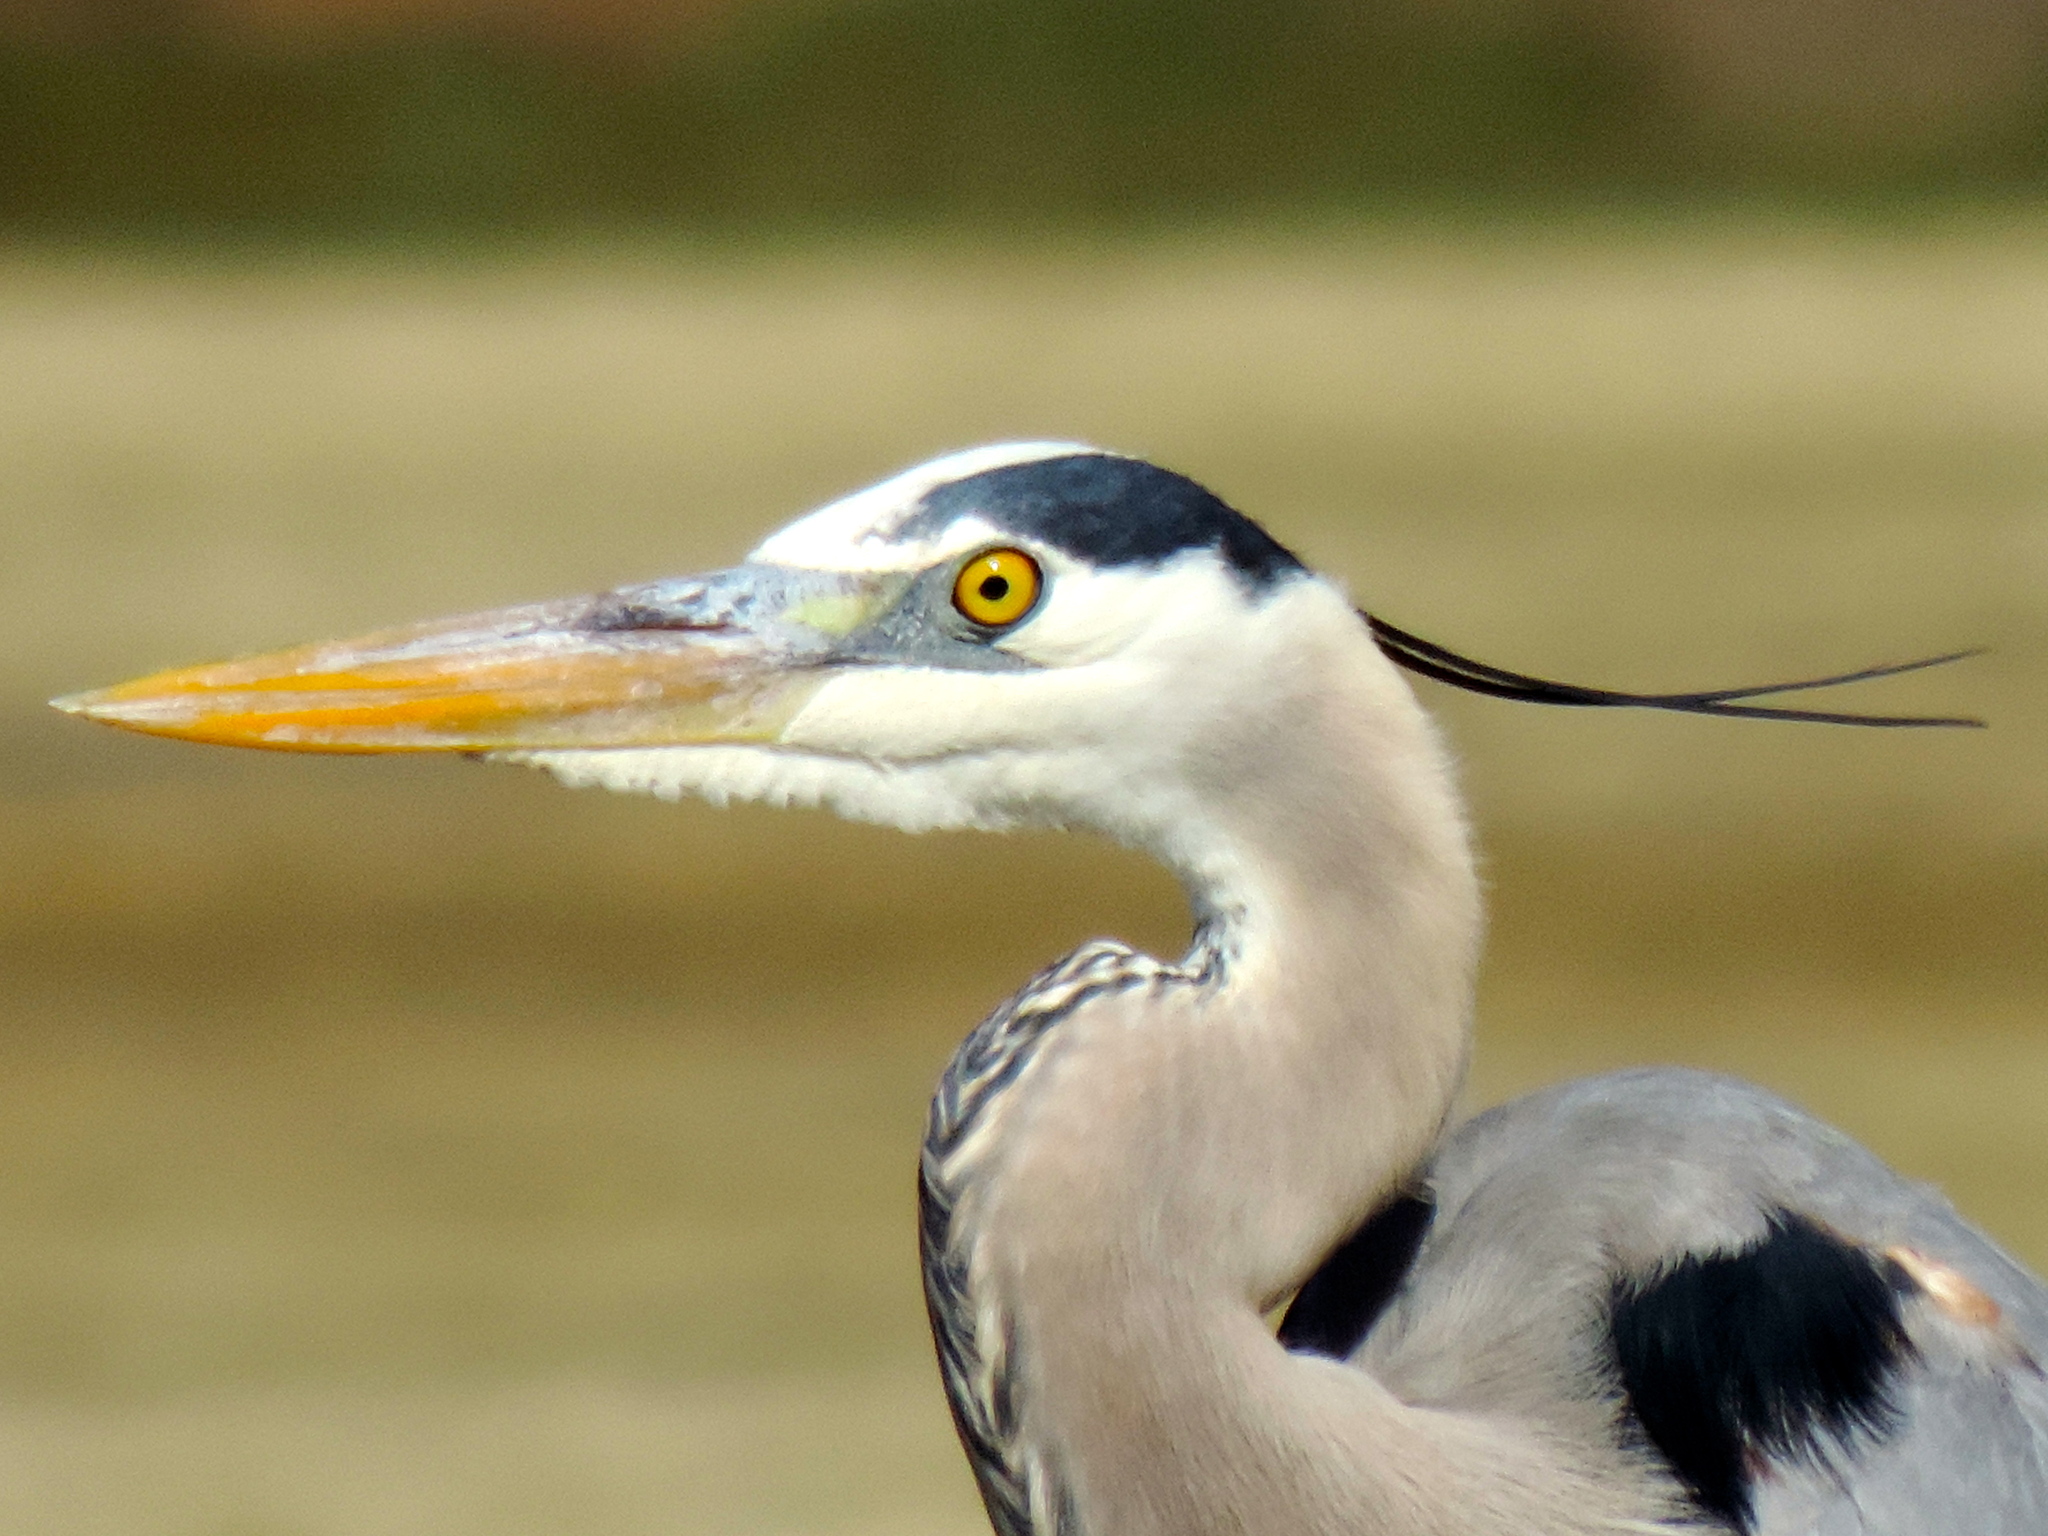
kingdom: Animalia
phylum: Chordata
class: Aves
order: Pelecaniformes
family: Ardeidae
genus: Ardea
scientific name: Ardea herodias
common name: Great blue heron
